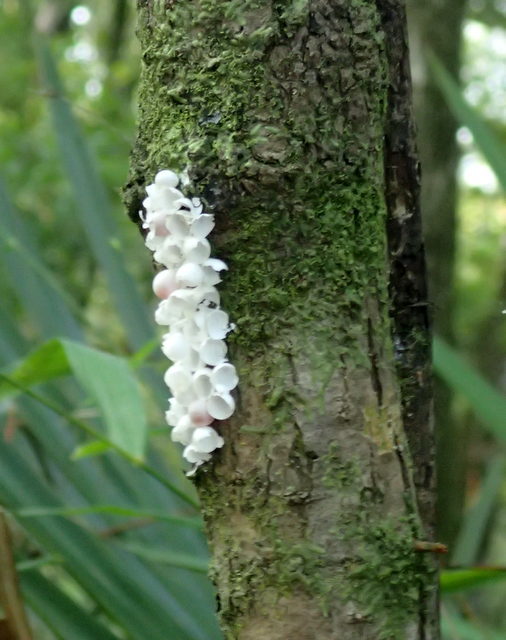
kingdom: Animalia
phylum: Mollusca
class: Gastropoda
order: Architaenioglossa
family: Ampullariidae
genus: Pomacea
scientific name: Pomacea paludosa
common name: Florida applesnail
